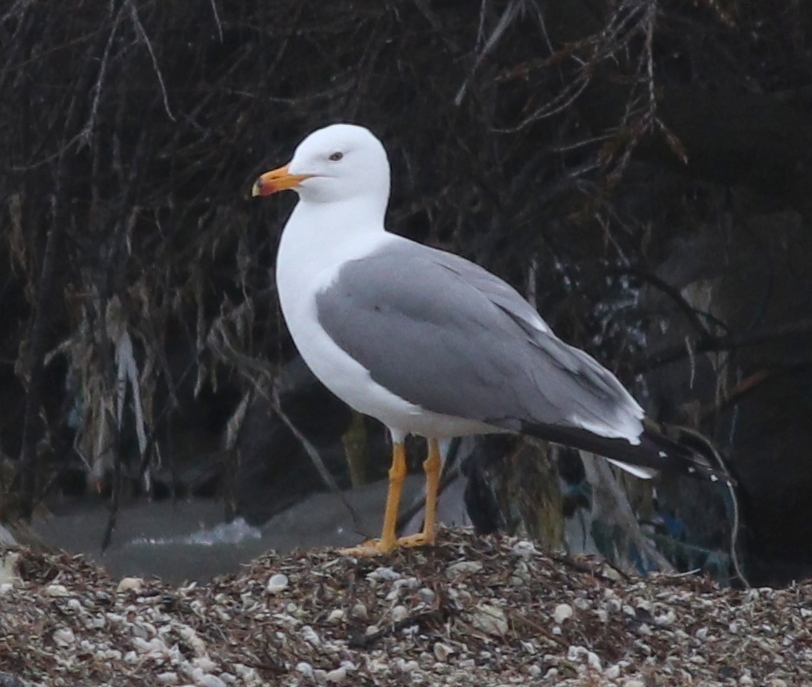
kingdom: Animalia
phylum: Chordata
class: Aves
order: Charadriiformes
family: Laridae
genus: Larus
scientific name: Larus armenicus
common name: Armenian gull
